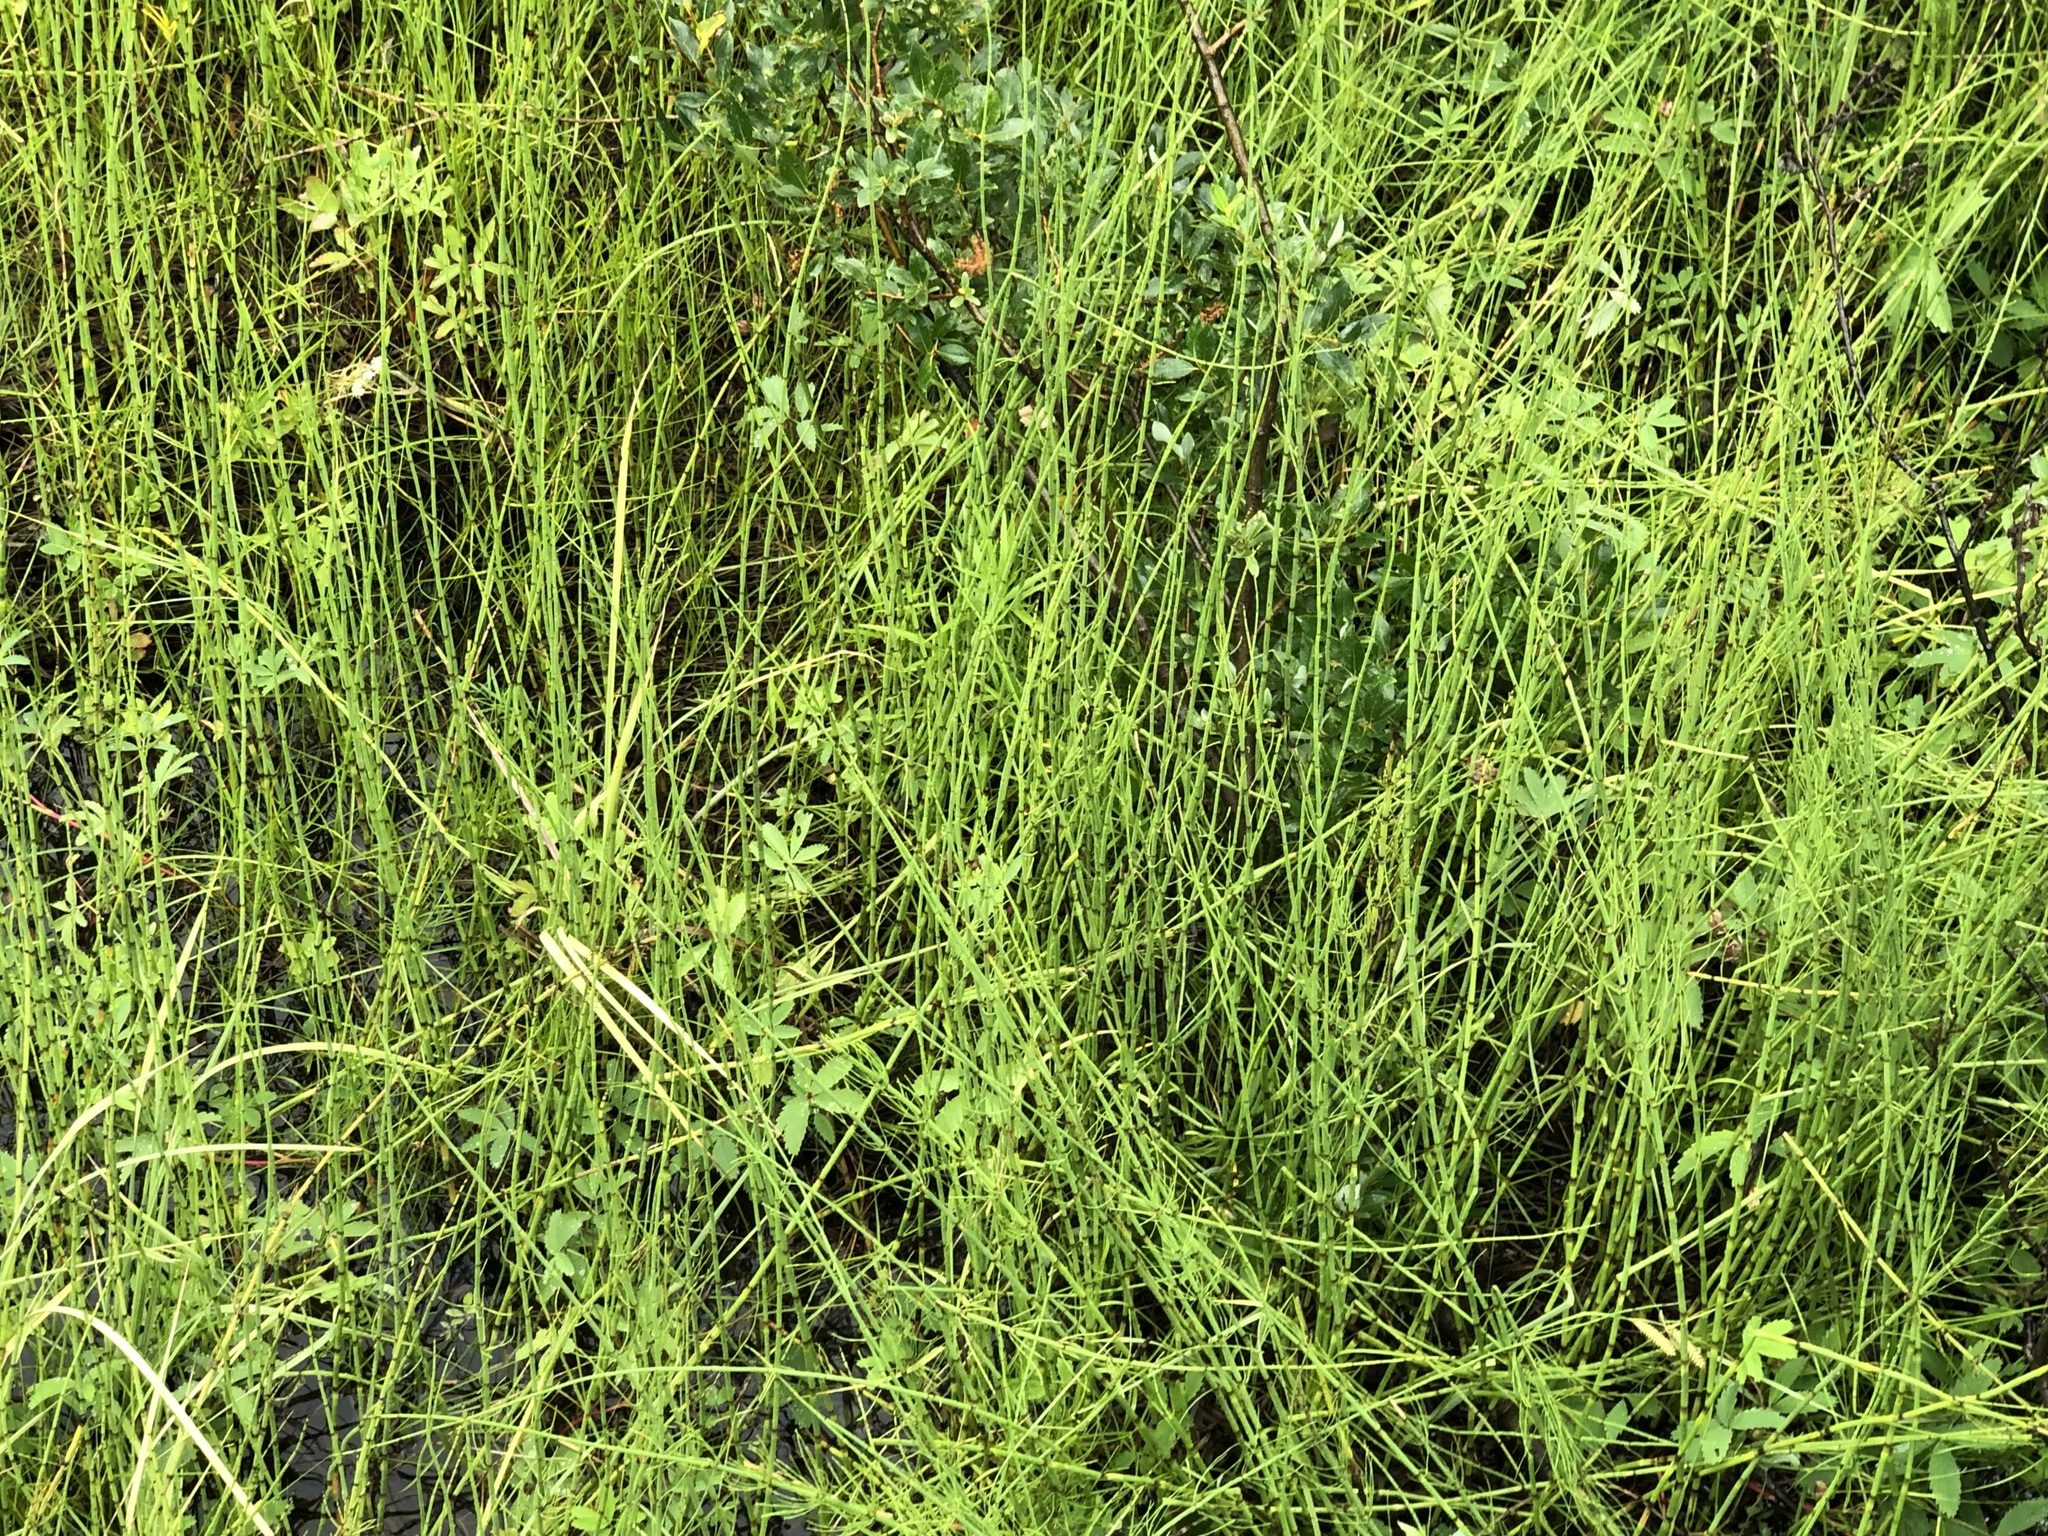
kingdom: Plantae
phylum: Tracheophyta
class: Polypodiopsida
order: Equisetales
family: Equisetaceae
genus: Equisetum
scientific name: Equisetum fluviatile
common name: Water horsetail
